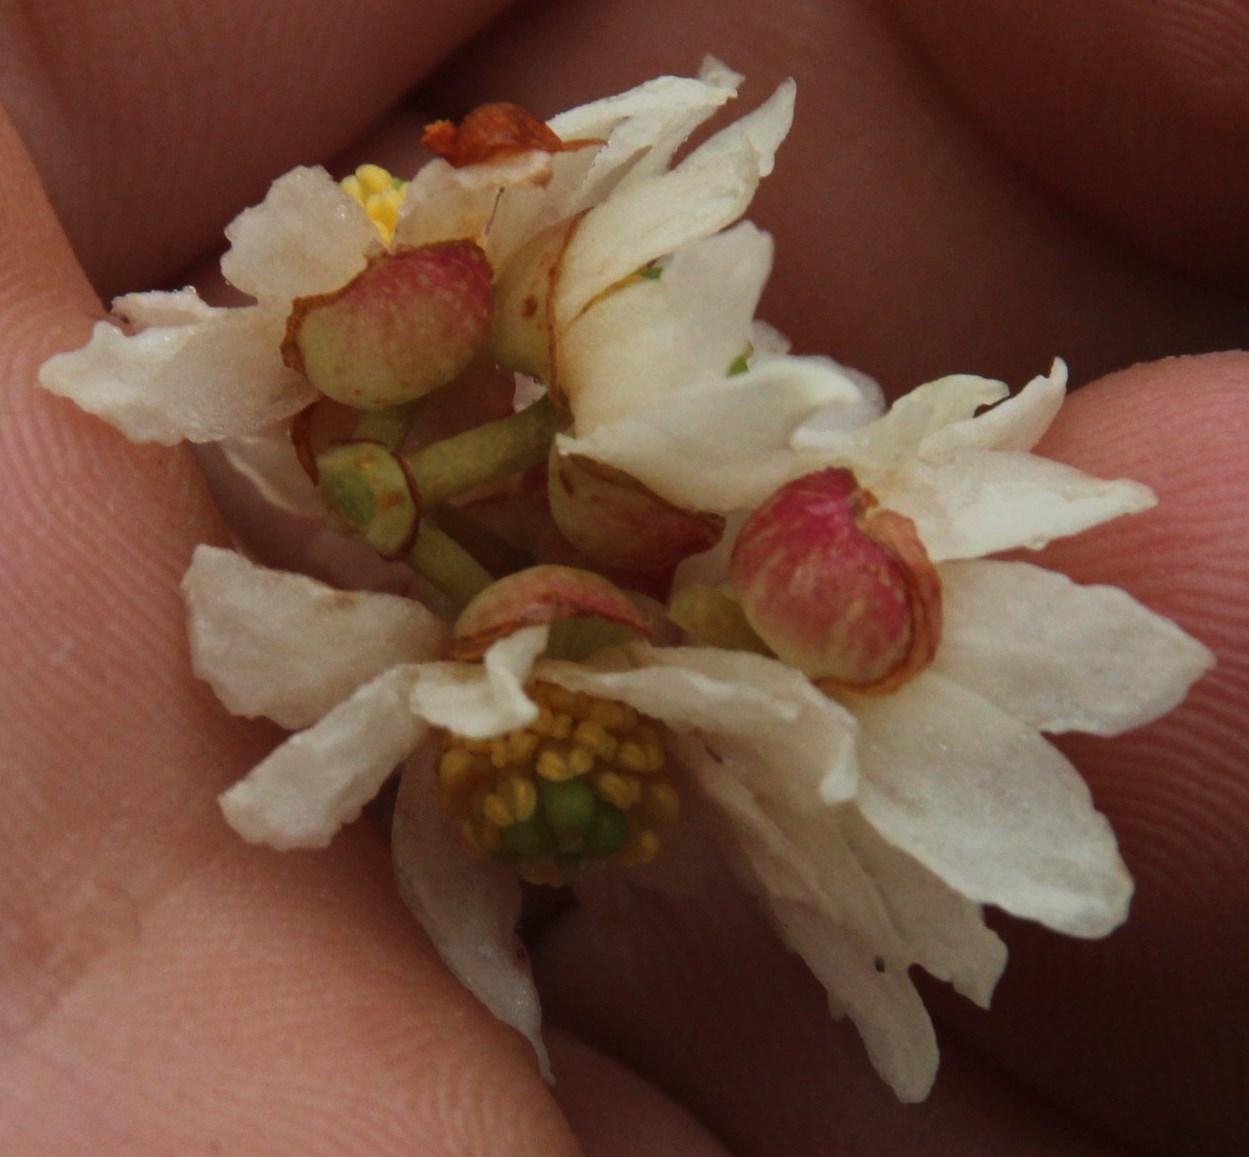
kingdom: Plantae
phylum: Tracheophyta
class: Magnoliopsida
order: Canellales
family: Winteraceae
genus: Drimys
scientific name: Drimys winteri
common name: Winter's-bark
